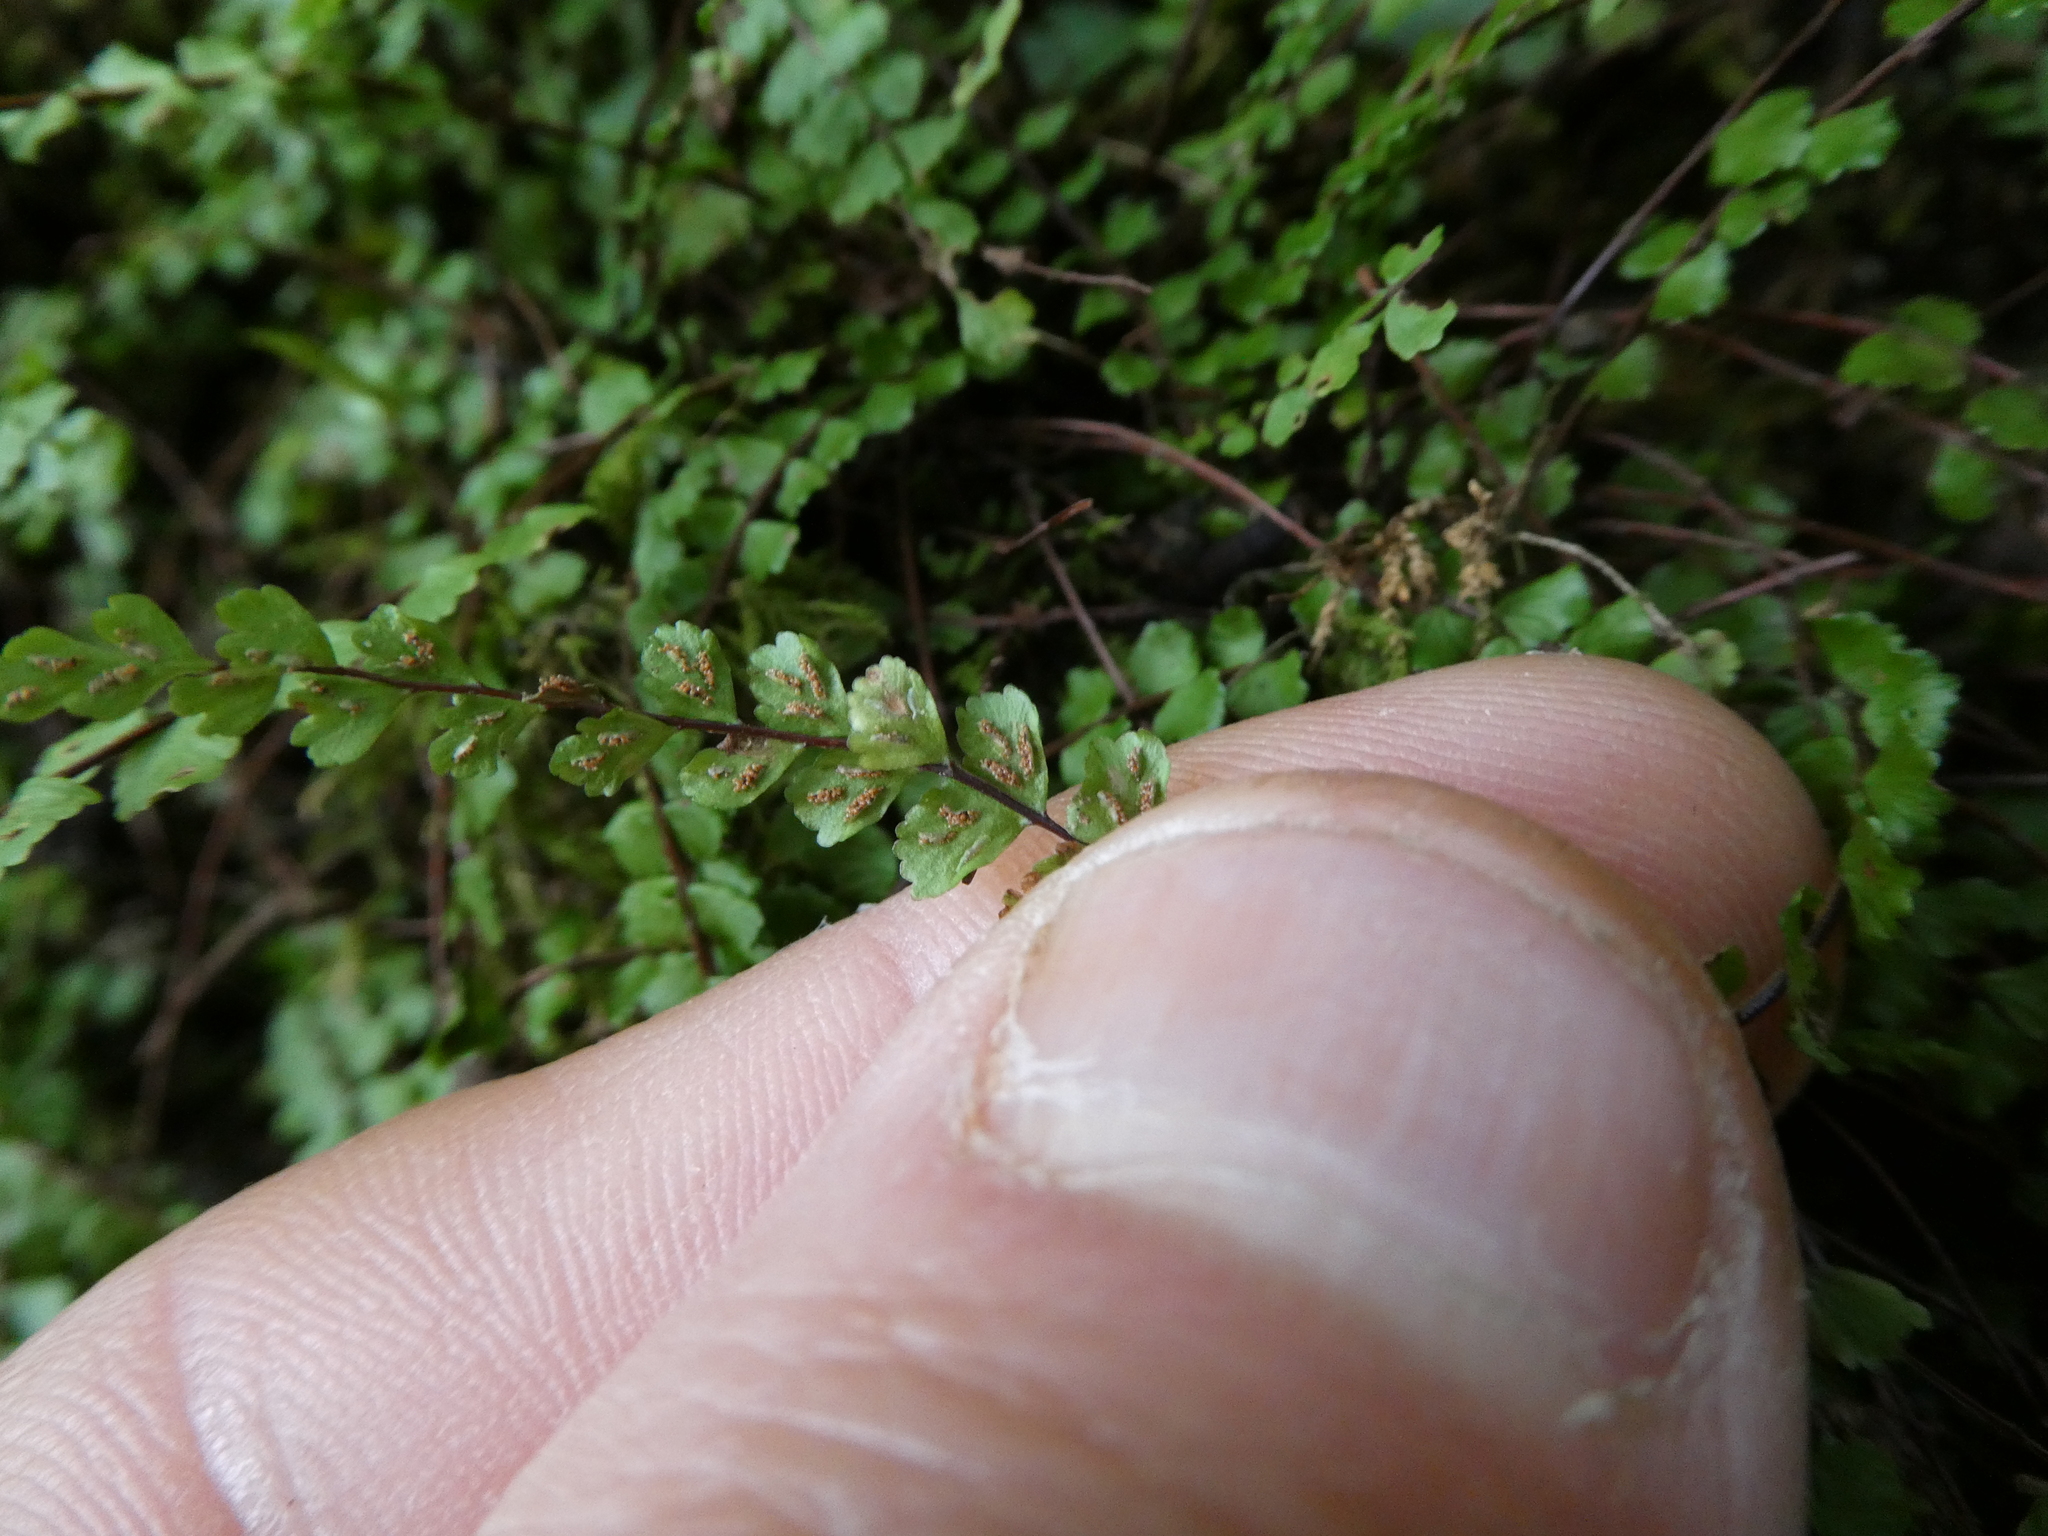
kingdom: Plantae
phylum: Tracheophyta
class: Polypodiopsida
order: Polypodiales
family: Aspleniaceae
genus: Asplenium
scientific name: Asplenium trichomanes
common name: Maidenhair spleenwort
